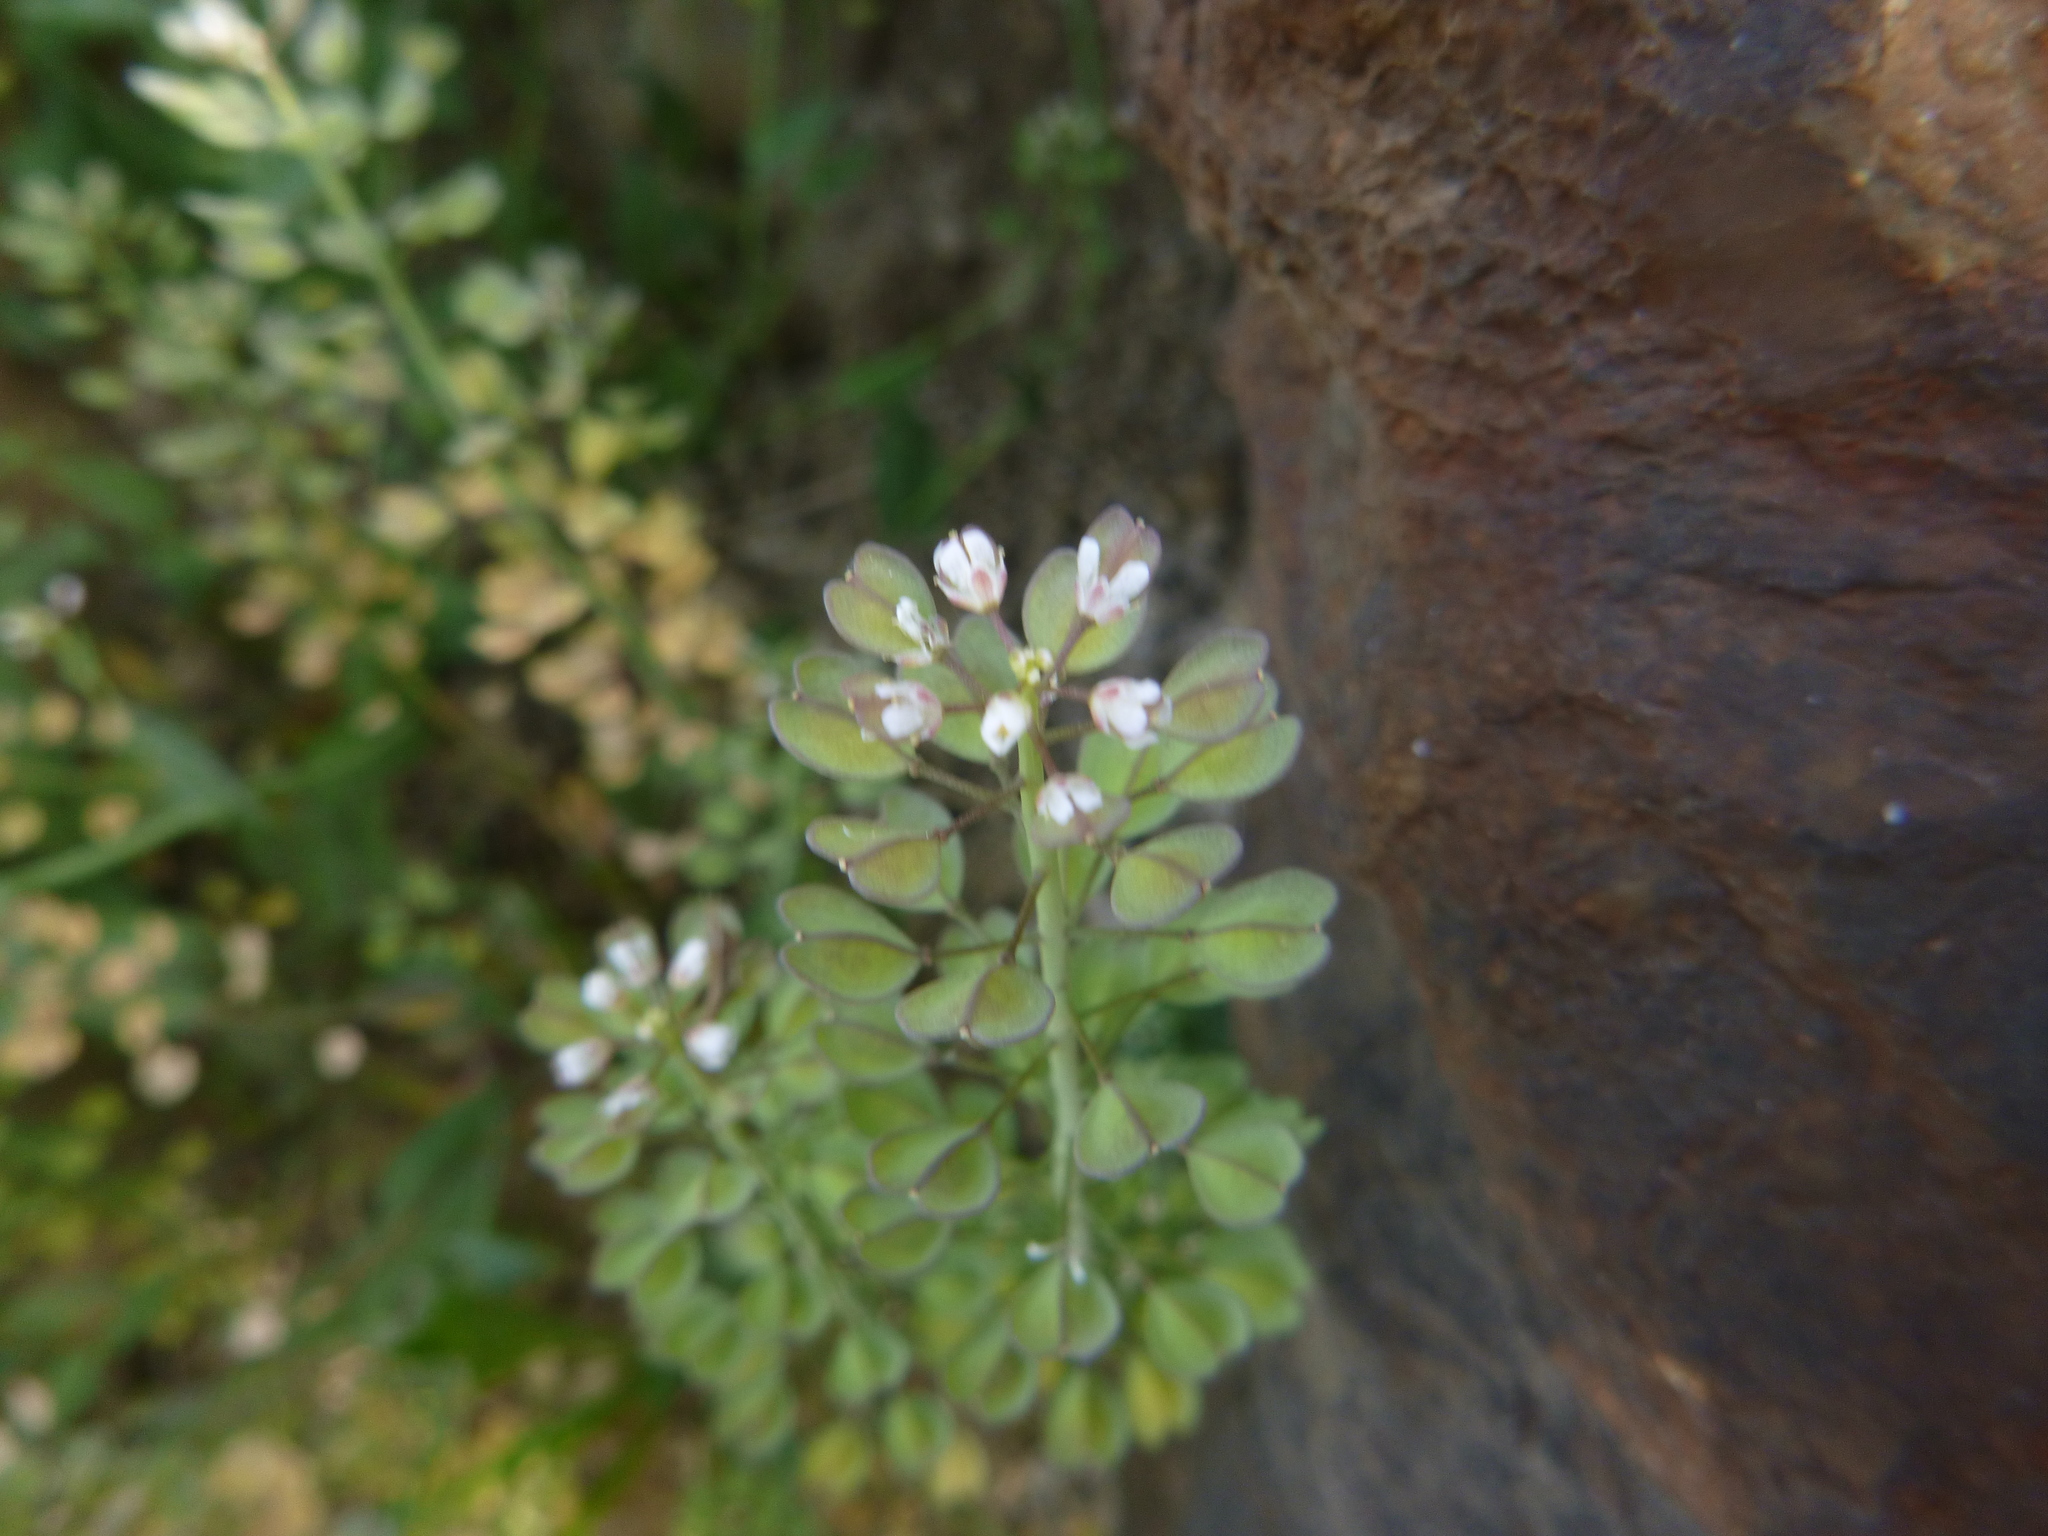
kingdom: Plantae
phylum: Tracheophyta
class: Magnoliopsida
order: Brassicales
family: Brassicaceae
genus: Noccaea
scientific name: Noccaea perfoliata
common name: Perfoliate pennycress
